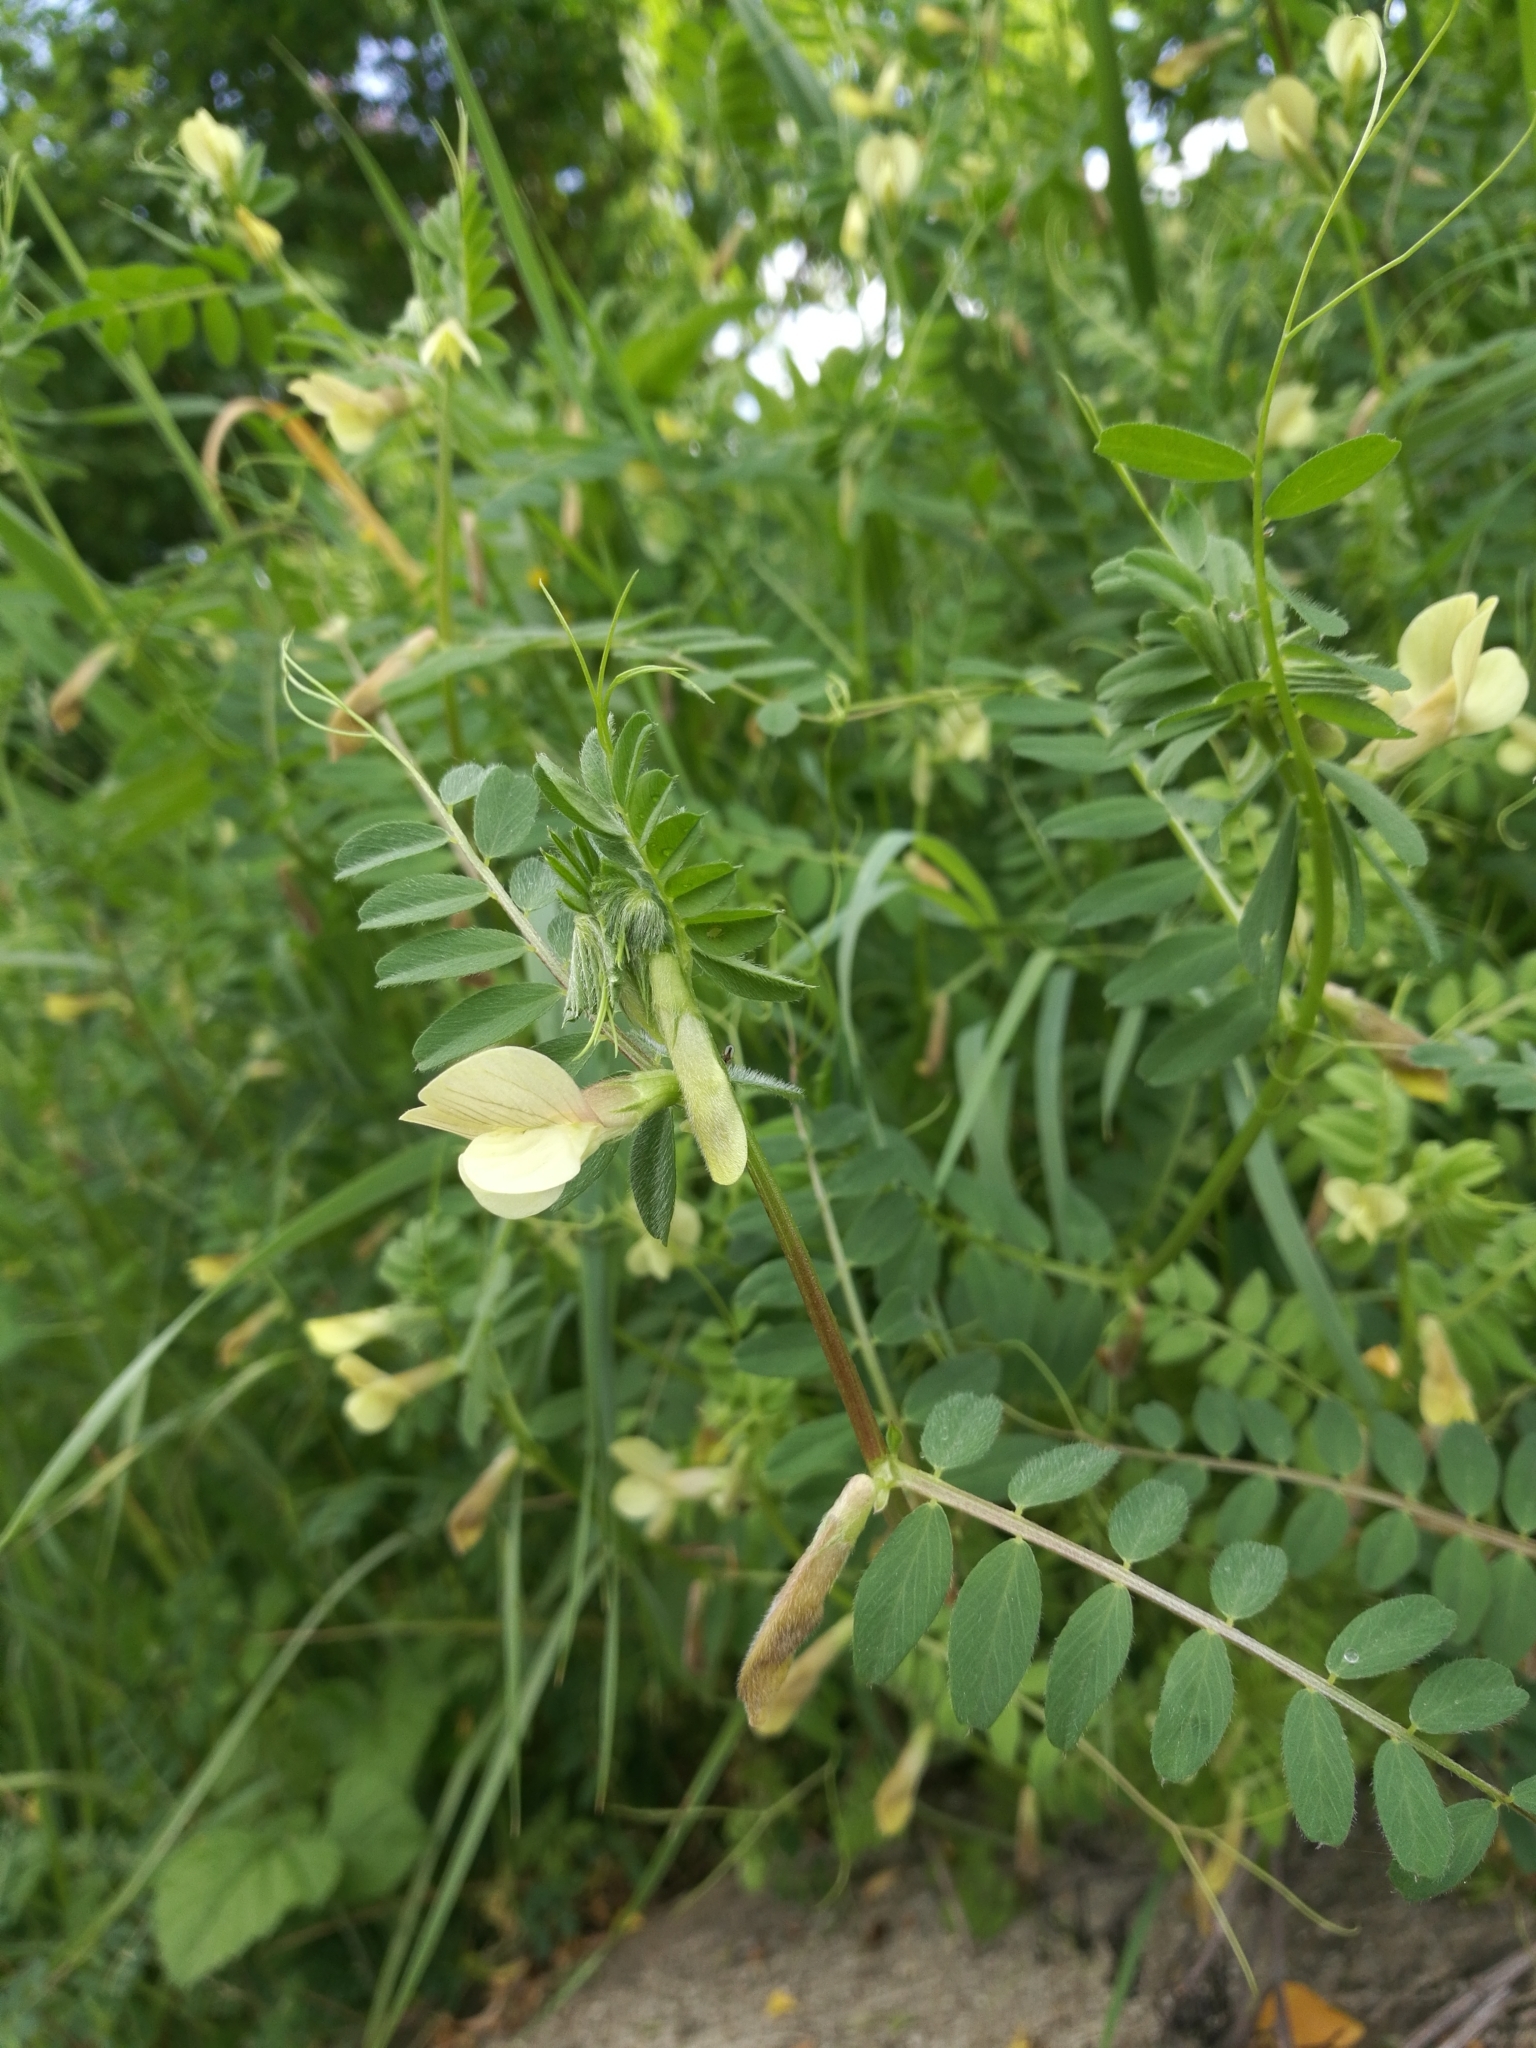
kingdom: Plantae
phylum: Tracheophyta
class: Magnoliopsida
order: Fabales
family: Fabaceae
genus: Vicia
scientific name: Vicia hybrida
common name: Hairy yellow vetch
